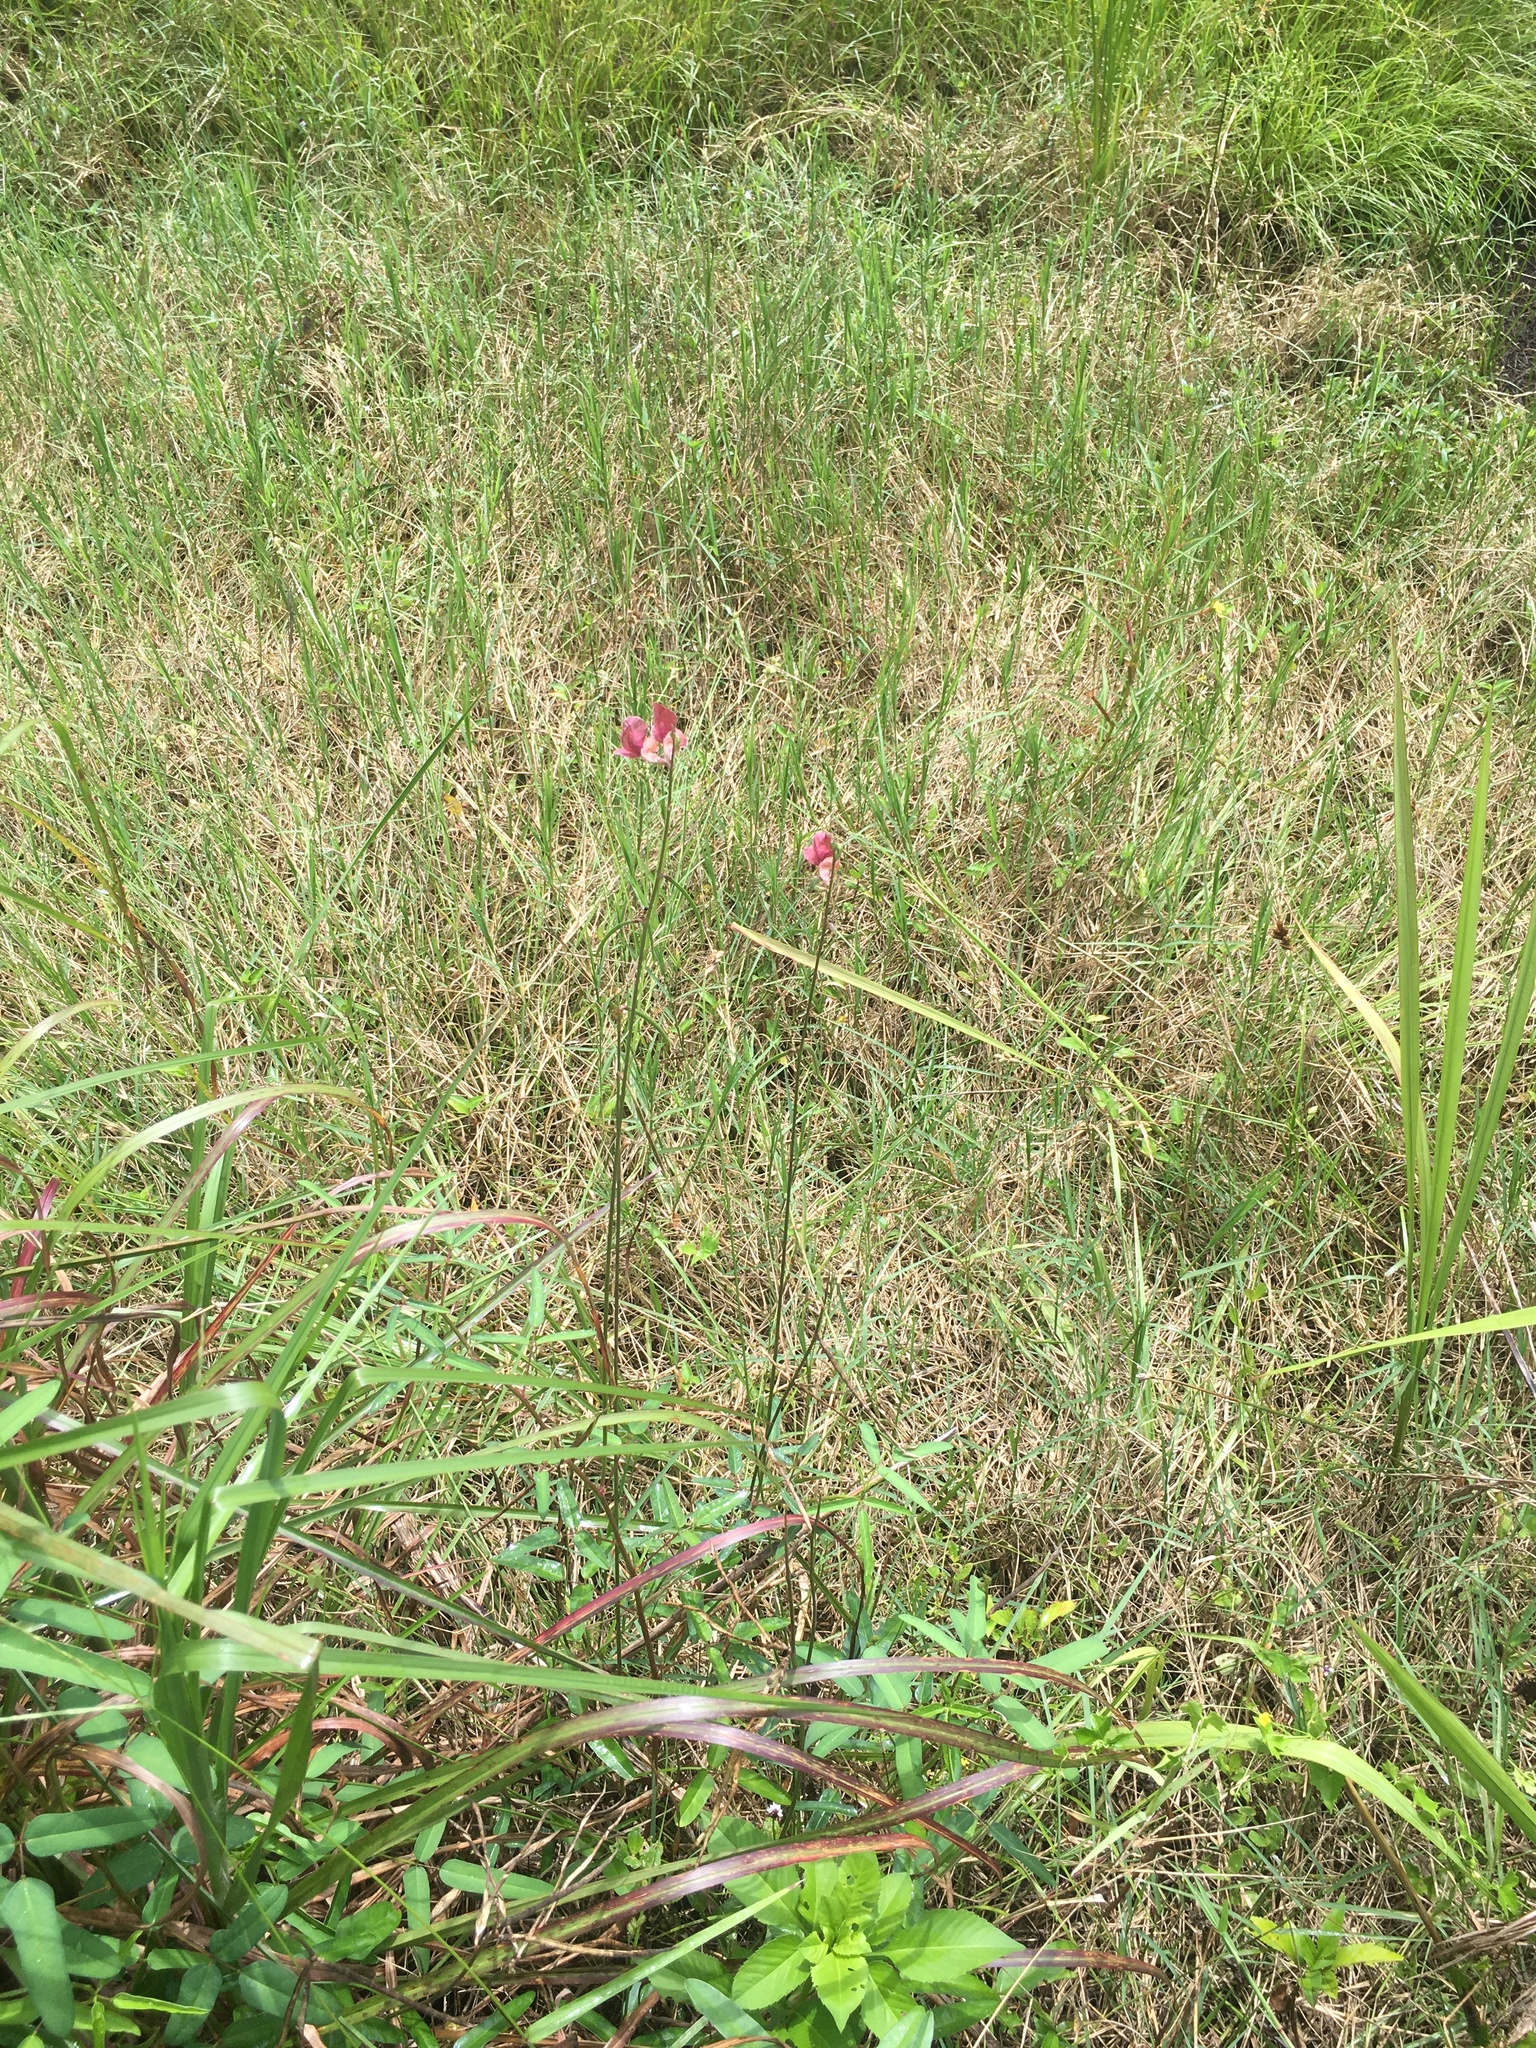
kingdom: Plantae
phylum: Tracheophyta
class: Magnoliopsida
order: Fabales
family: Fabaceae
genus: Macroptilium
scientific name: Macroptilium lathyroides
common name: Wild bushbean
